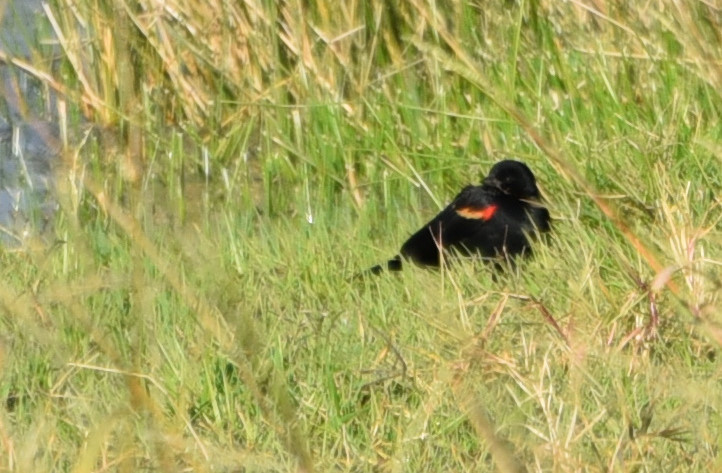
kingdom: Animalia
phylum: Chordata
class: Aves
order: Passeriformes
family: Icteridae
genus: Agelaius
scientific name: Agelaius phoeniceus
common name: Red-winged blackbird
